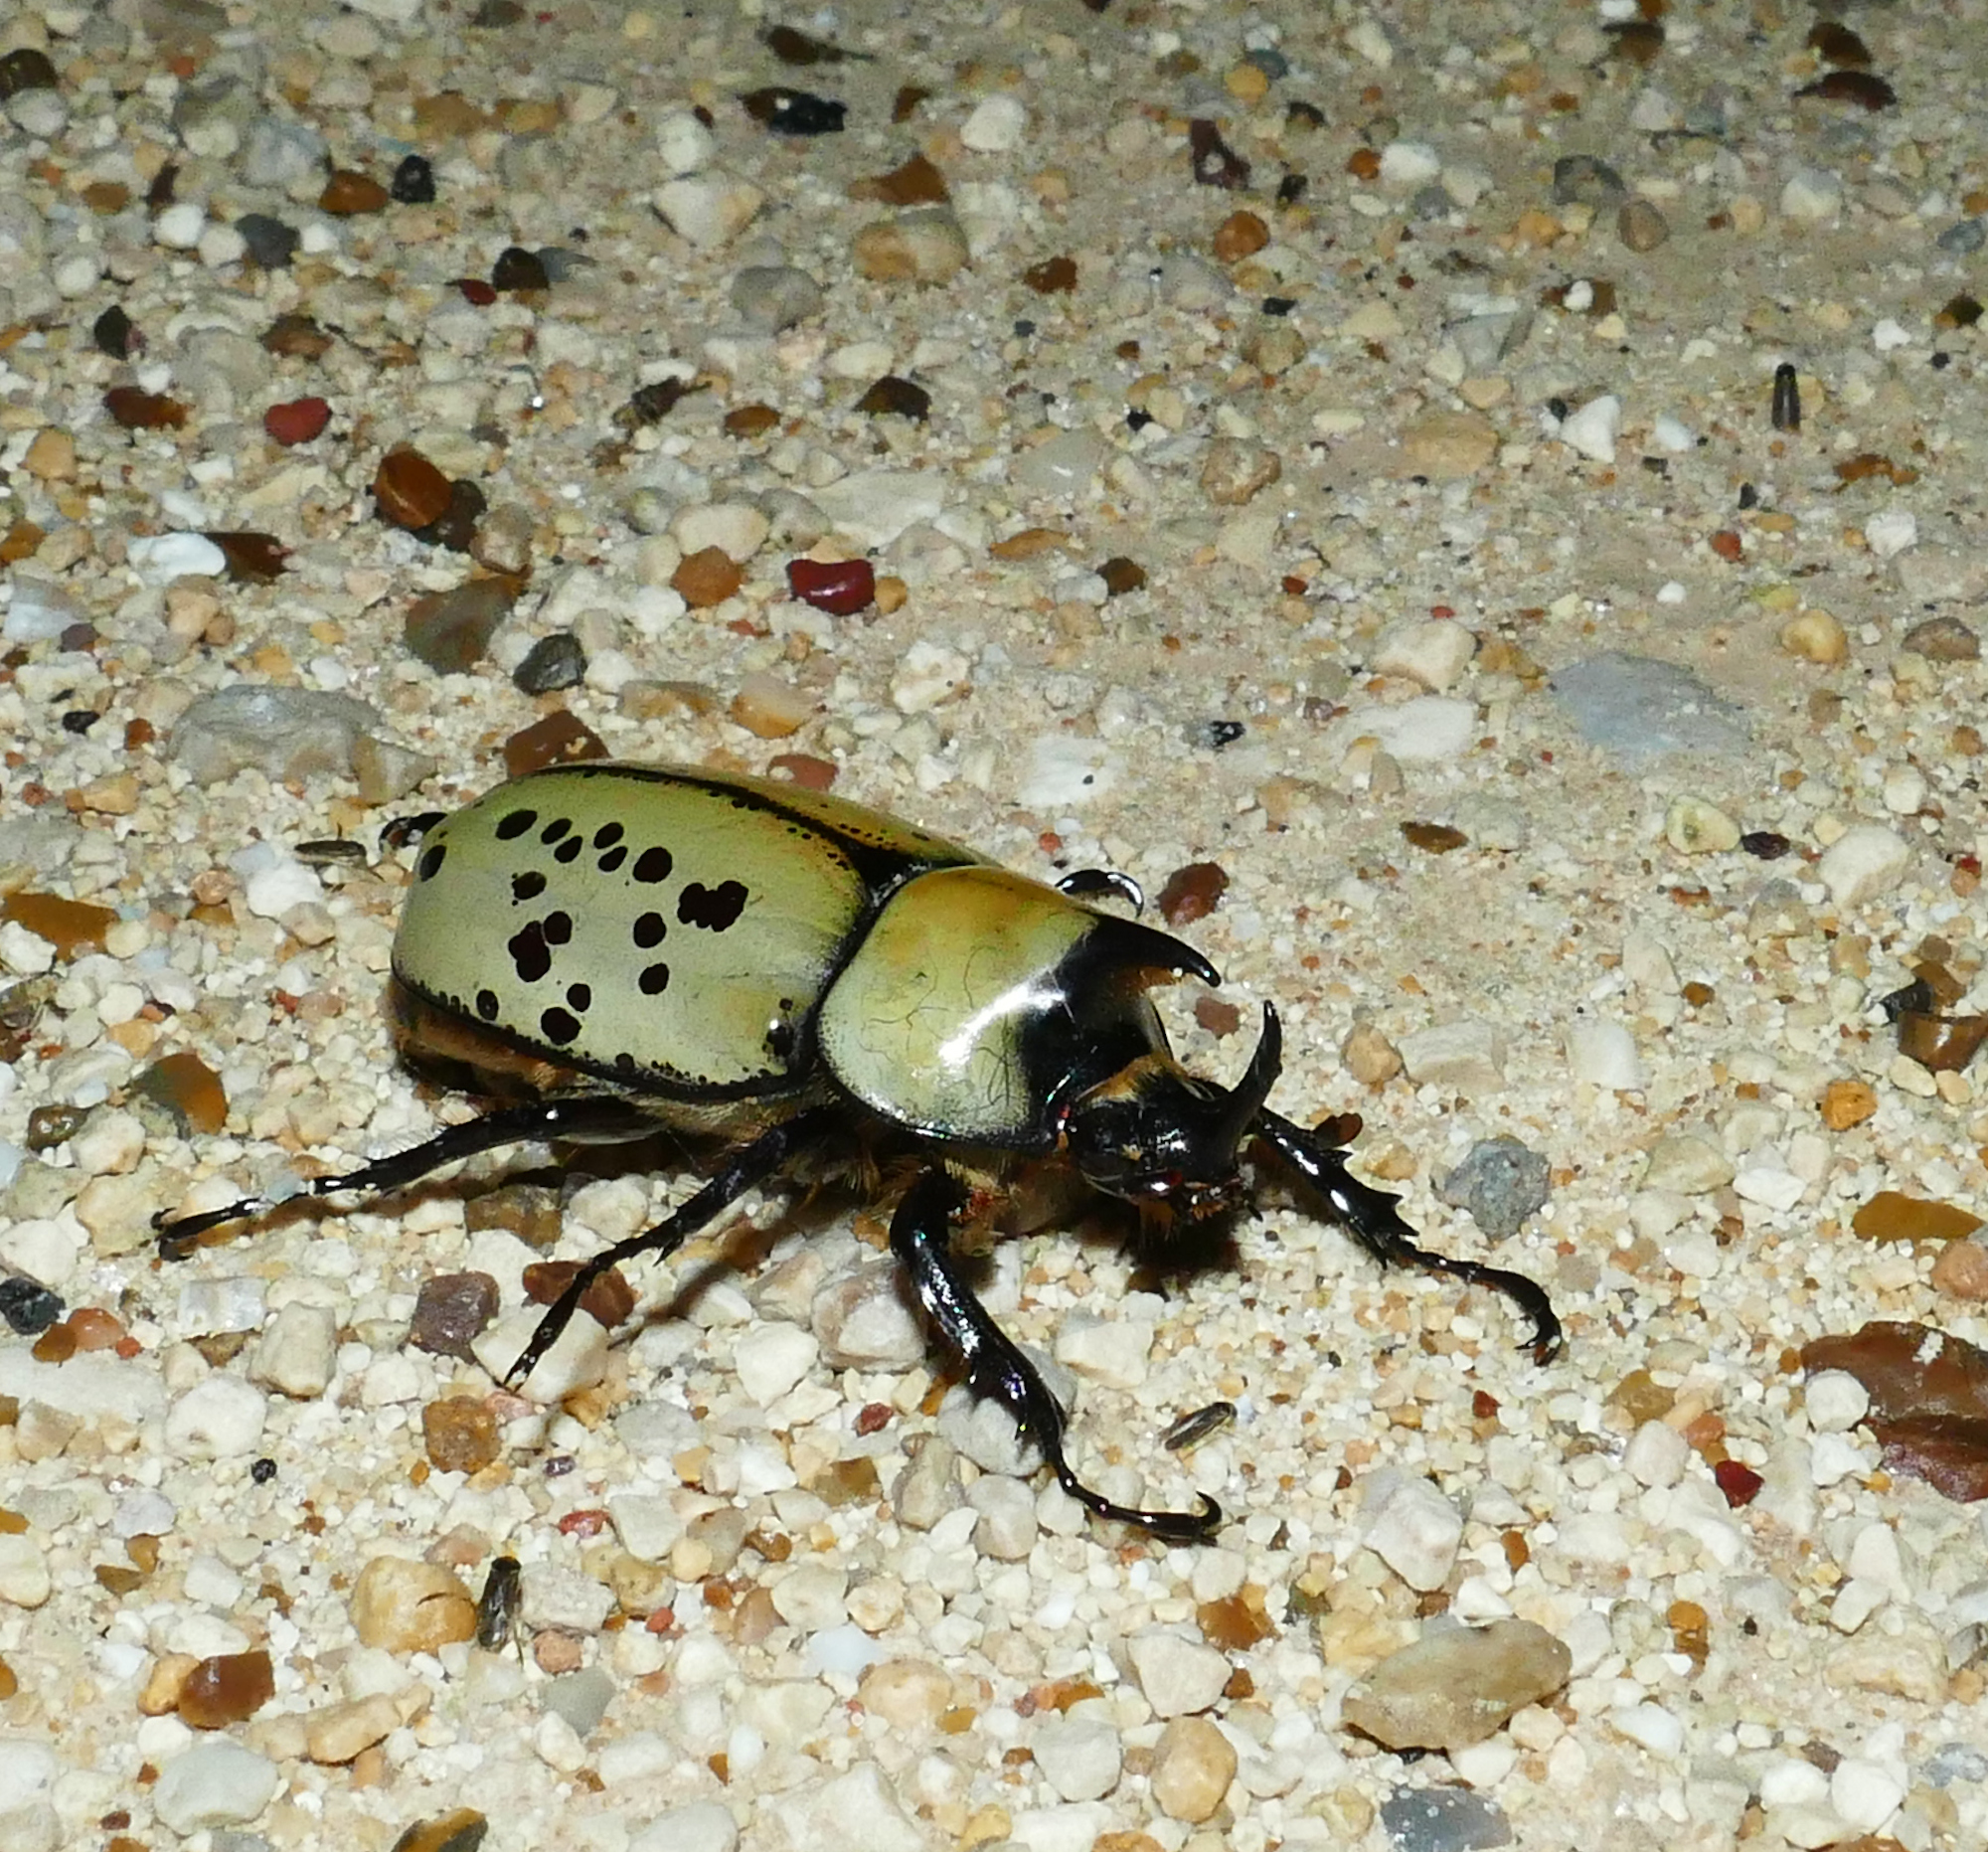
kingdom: Animalia
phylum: Arthropoda
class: Insecta
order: Coleoptera
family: Scarabaeidae
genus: Dynastes
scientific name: Dynastes tityus
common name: Eastern hercules beetle
